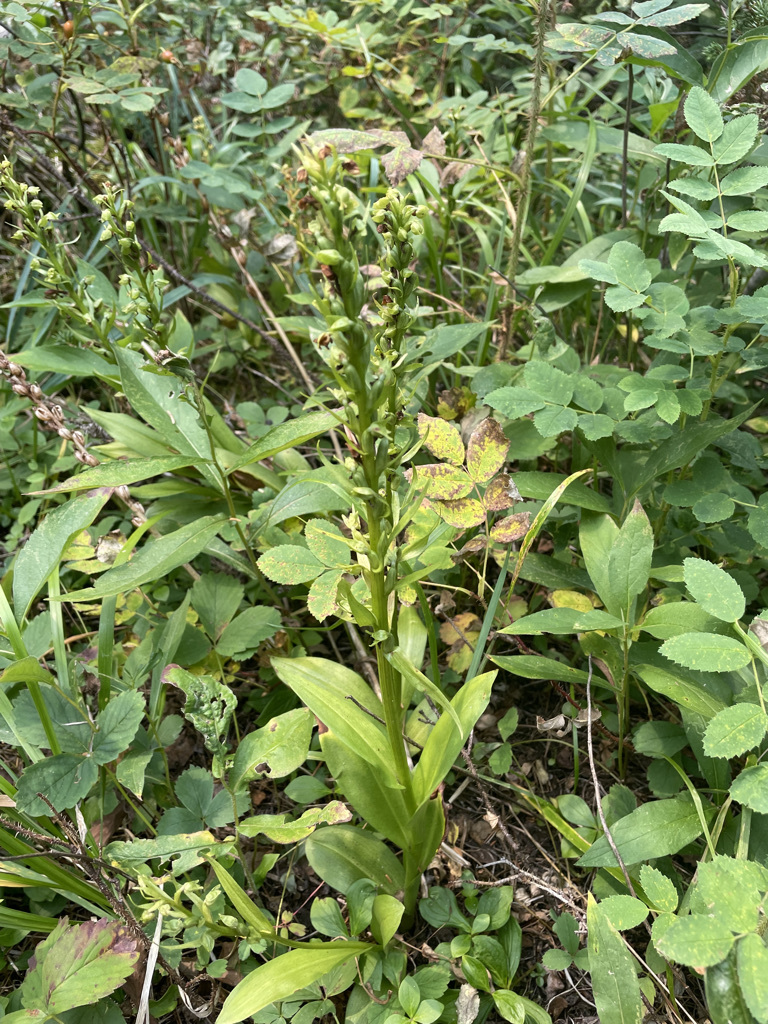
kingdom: Plantae
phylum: Tracheophyta
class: Liliopsida
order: Asparagales
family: Orchidaceae
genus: Dactylorhiza
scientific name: Dactylorhiza viridis
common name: Longbract frog orchid
